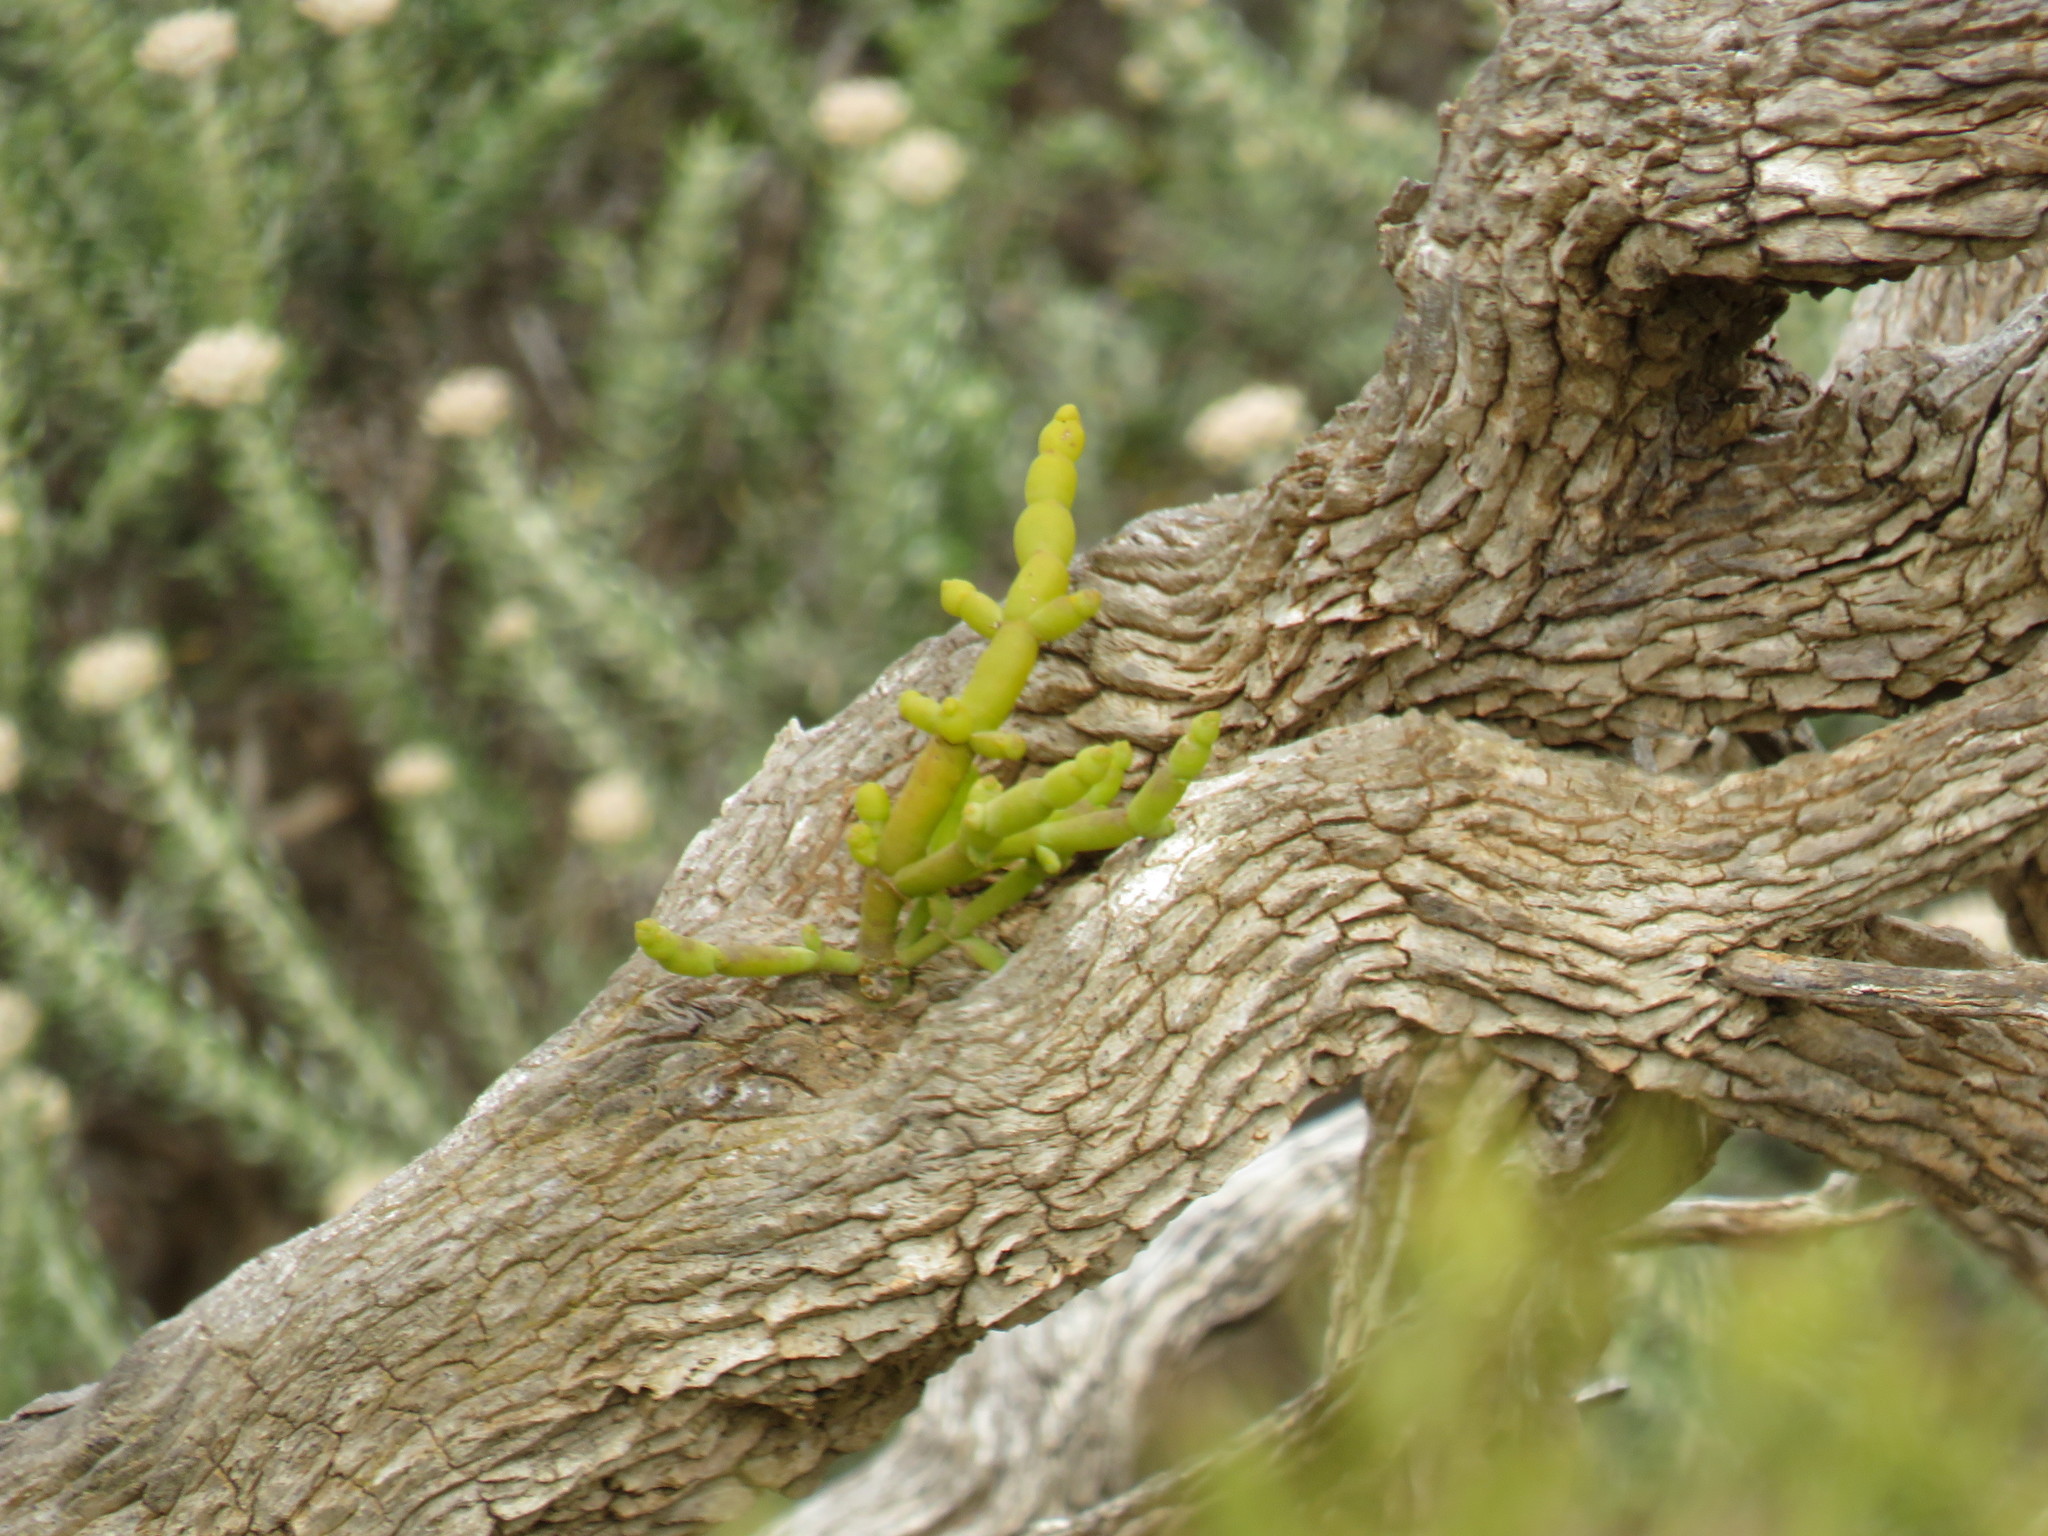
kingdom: Plantae
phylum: Tracheophyta
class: Magnoliopsida
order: Santalales
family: Viscaceae
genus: Viscum
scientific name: Viscum capense
